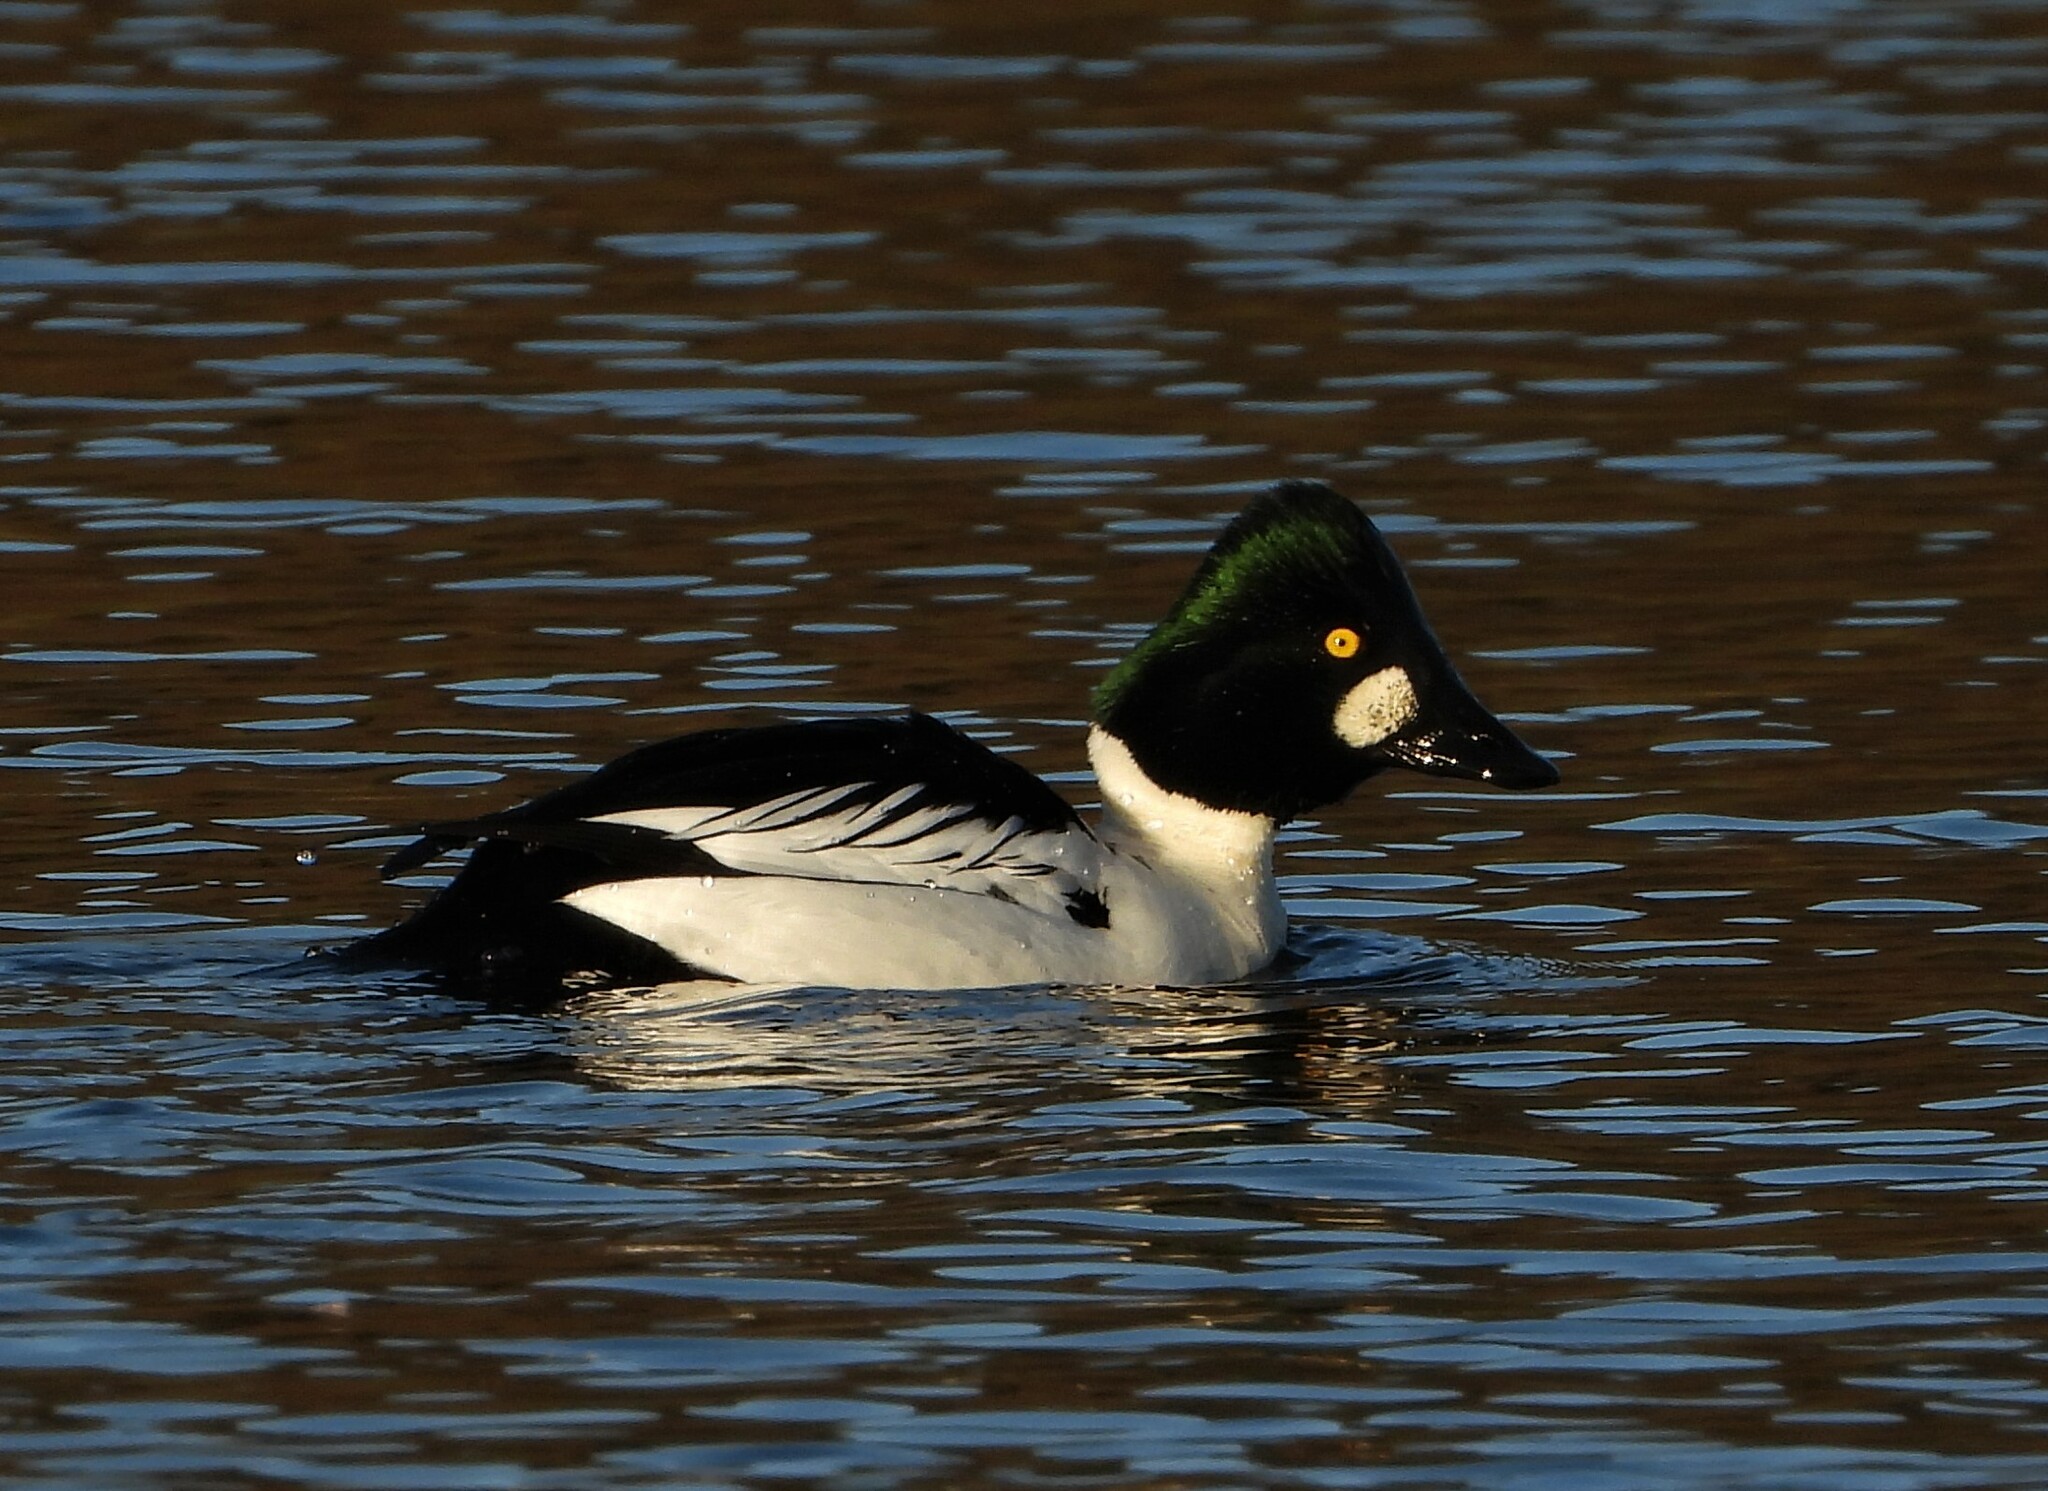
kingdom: Animalia
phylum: Chordata
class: Aves
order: Anseriformes
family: Anatidae
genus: Bucephala
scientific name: Bucephala clangula
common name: Common goldeneye
